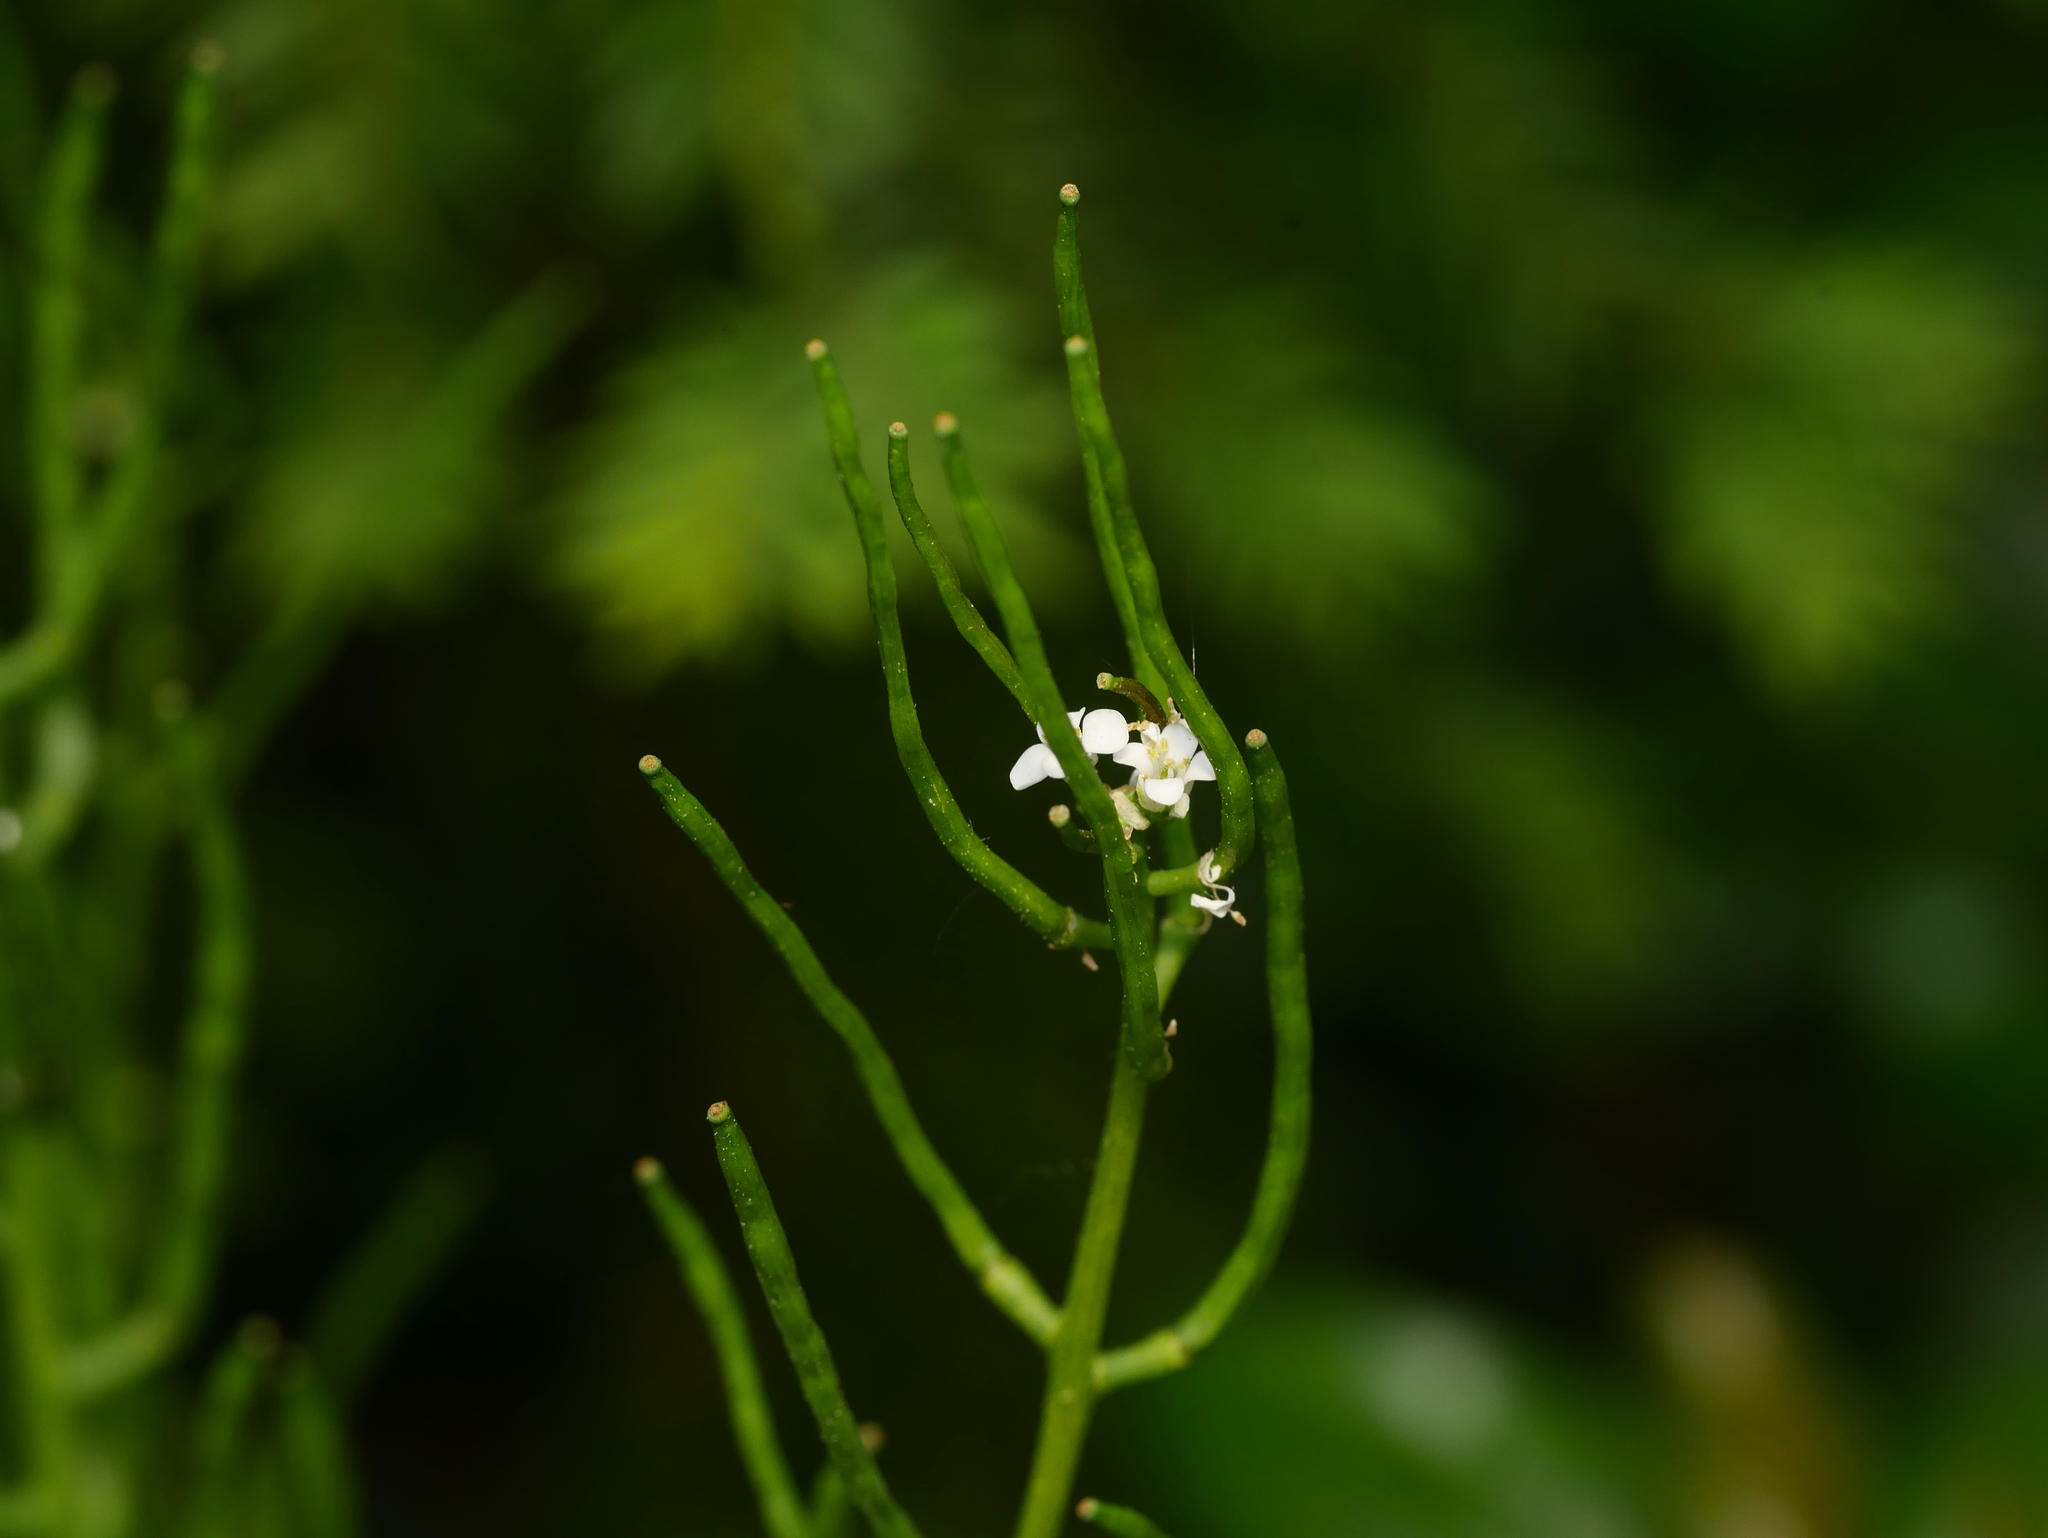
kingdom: Plantae
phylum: Tracheophyta
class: Magnoliopsida
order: Brassicales
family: Brassicaceae
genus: Alliaria
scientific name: Alliaria petiolata
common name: Garlic mustard
